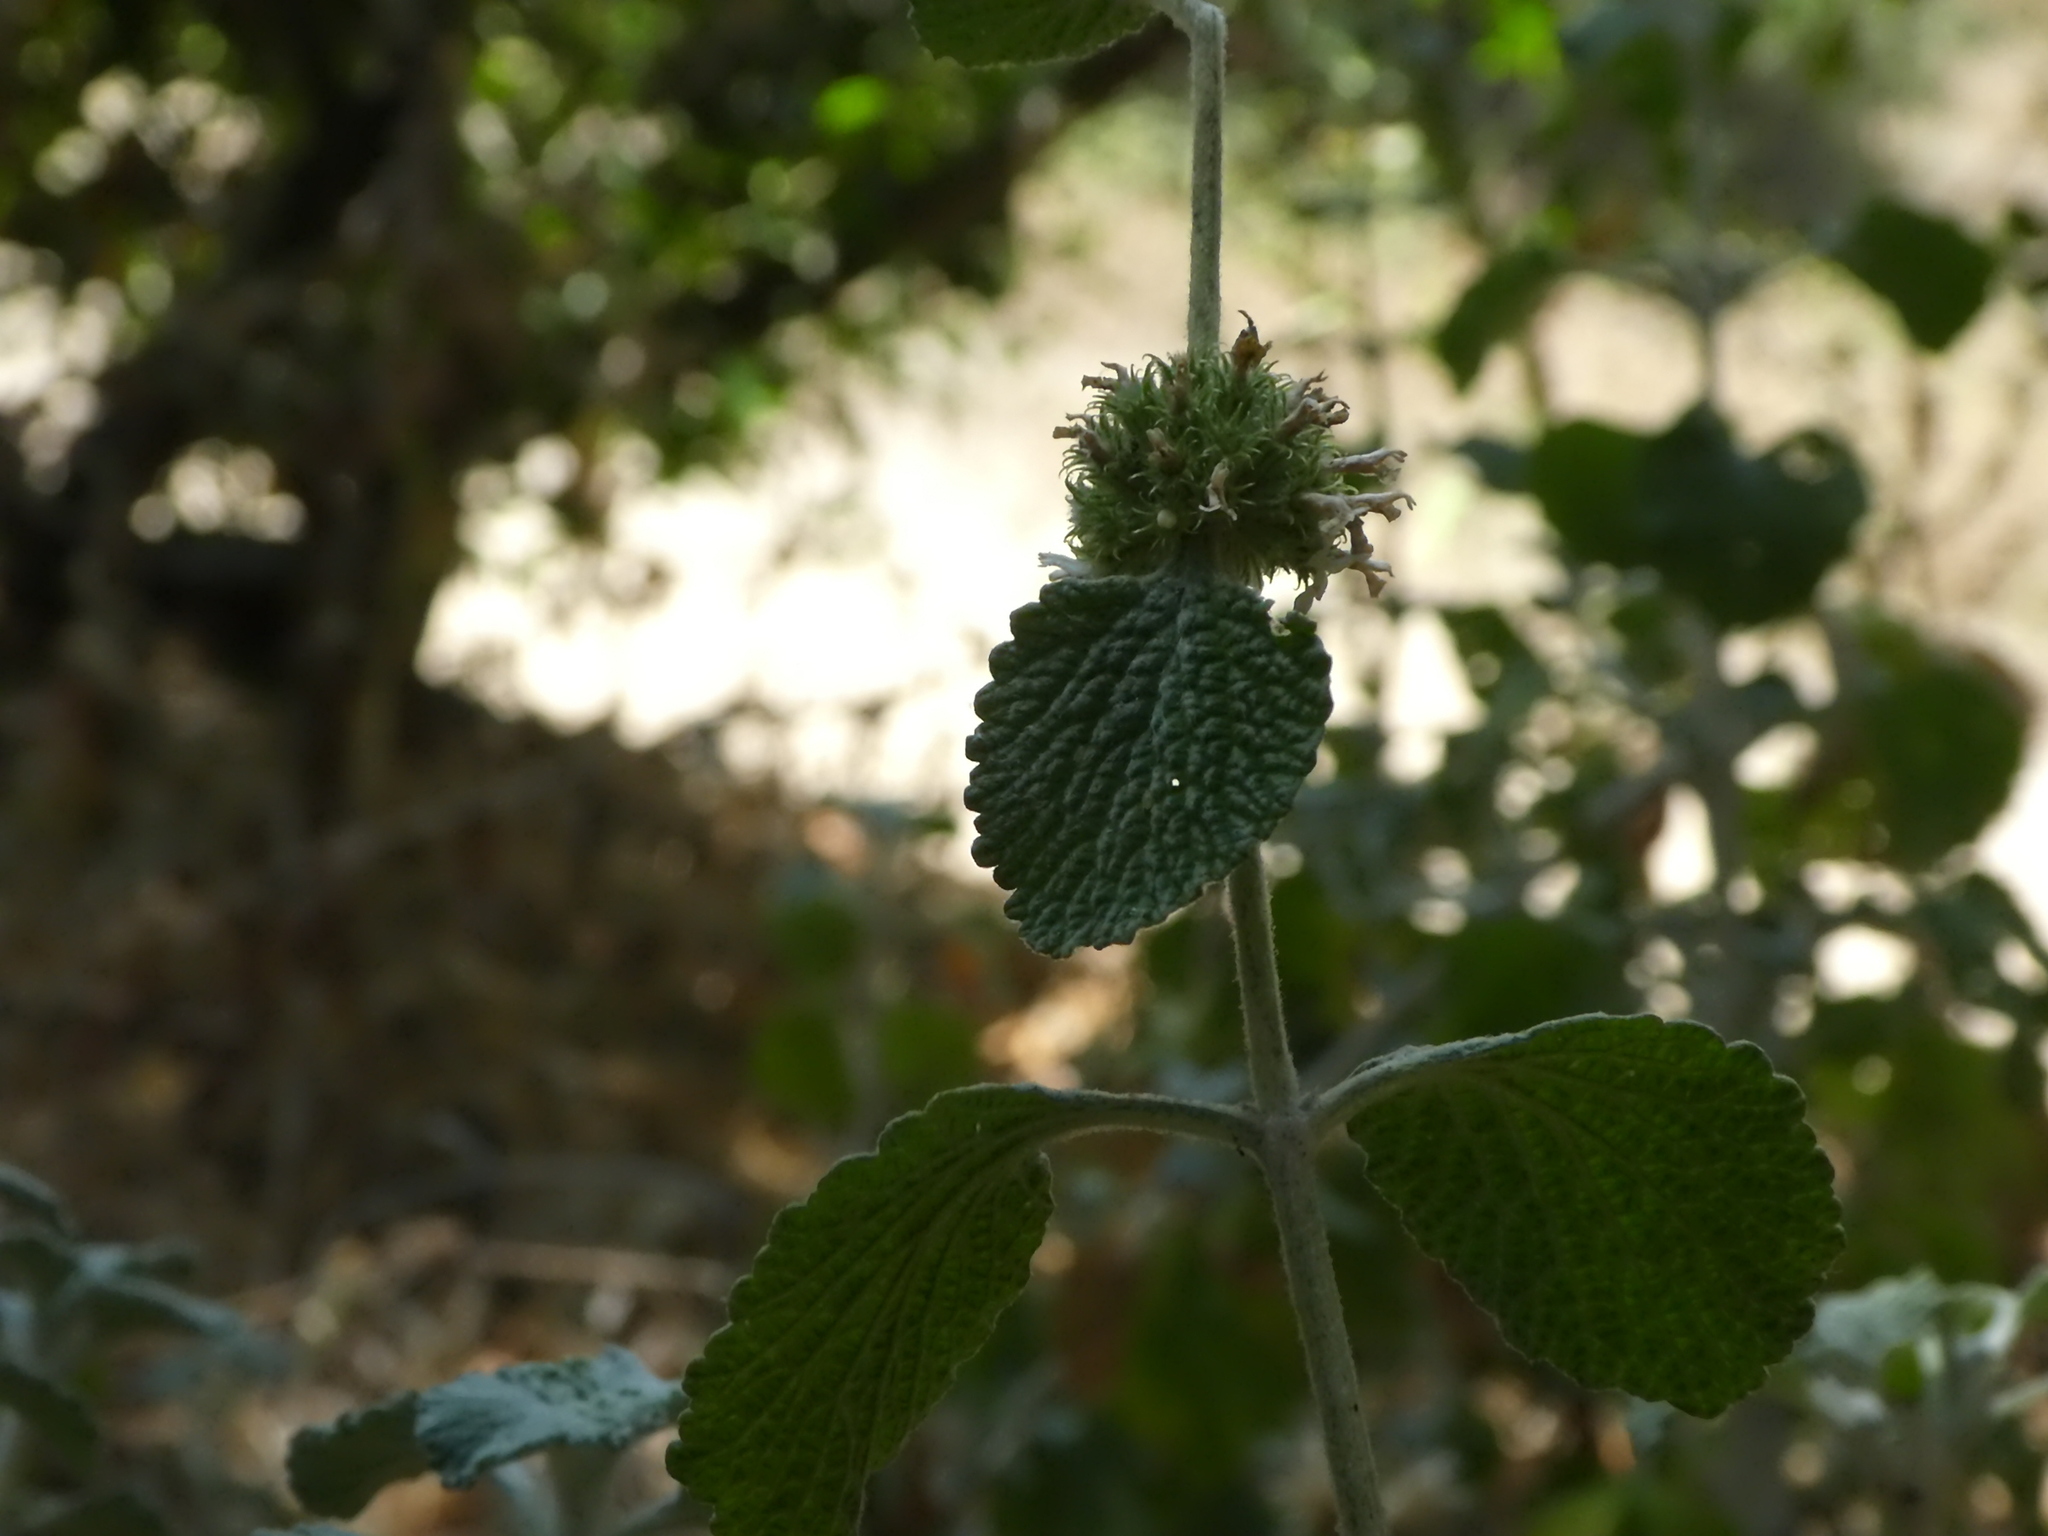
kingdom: Plantae
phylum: Tracheophyta
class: Magnoliopsida
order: Lamiales
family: Lamiaceae
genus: Marrubium
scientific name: Marrubium vulgare
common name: Horehound
